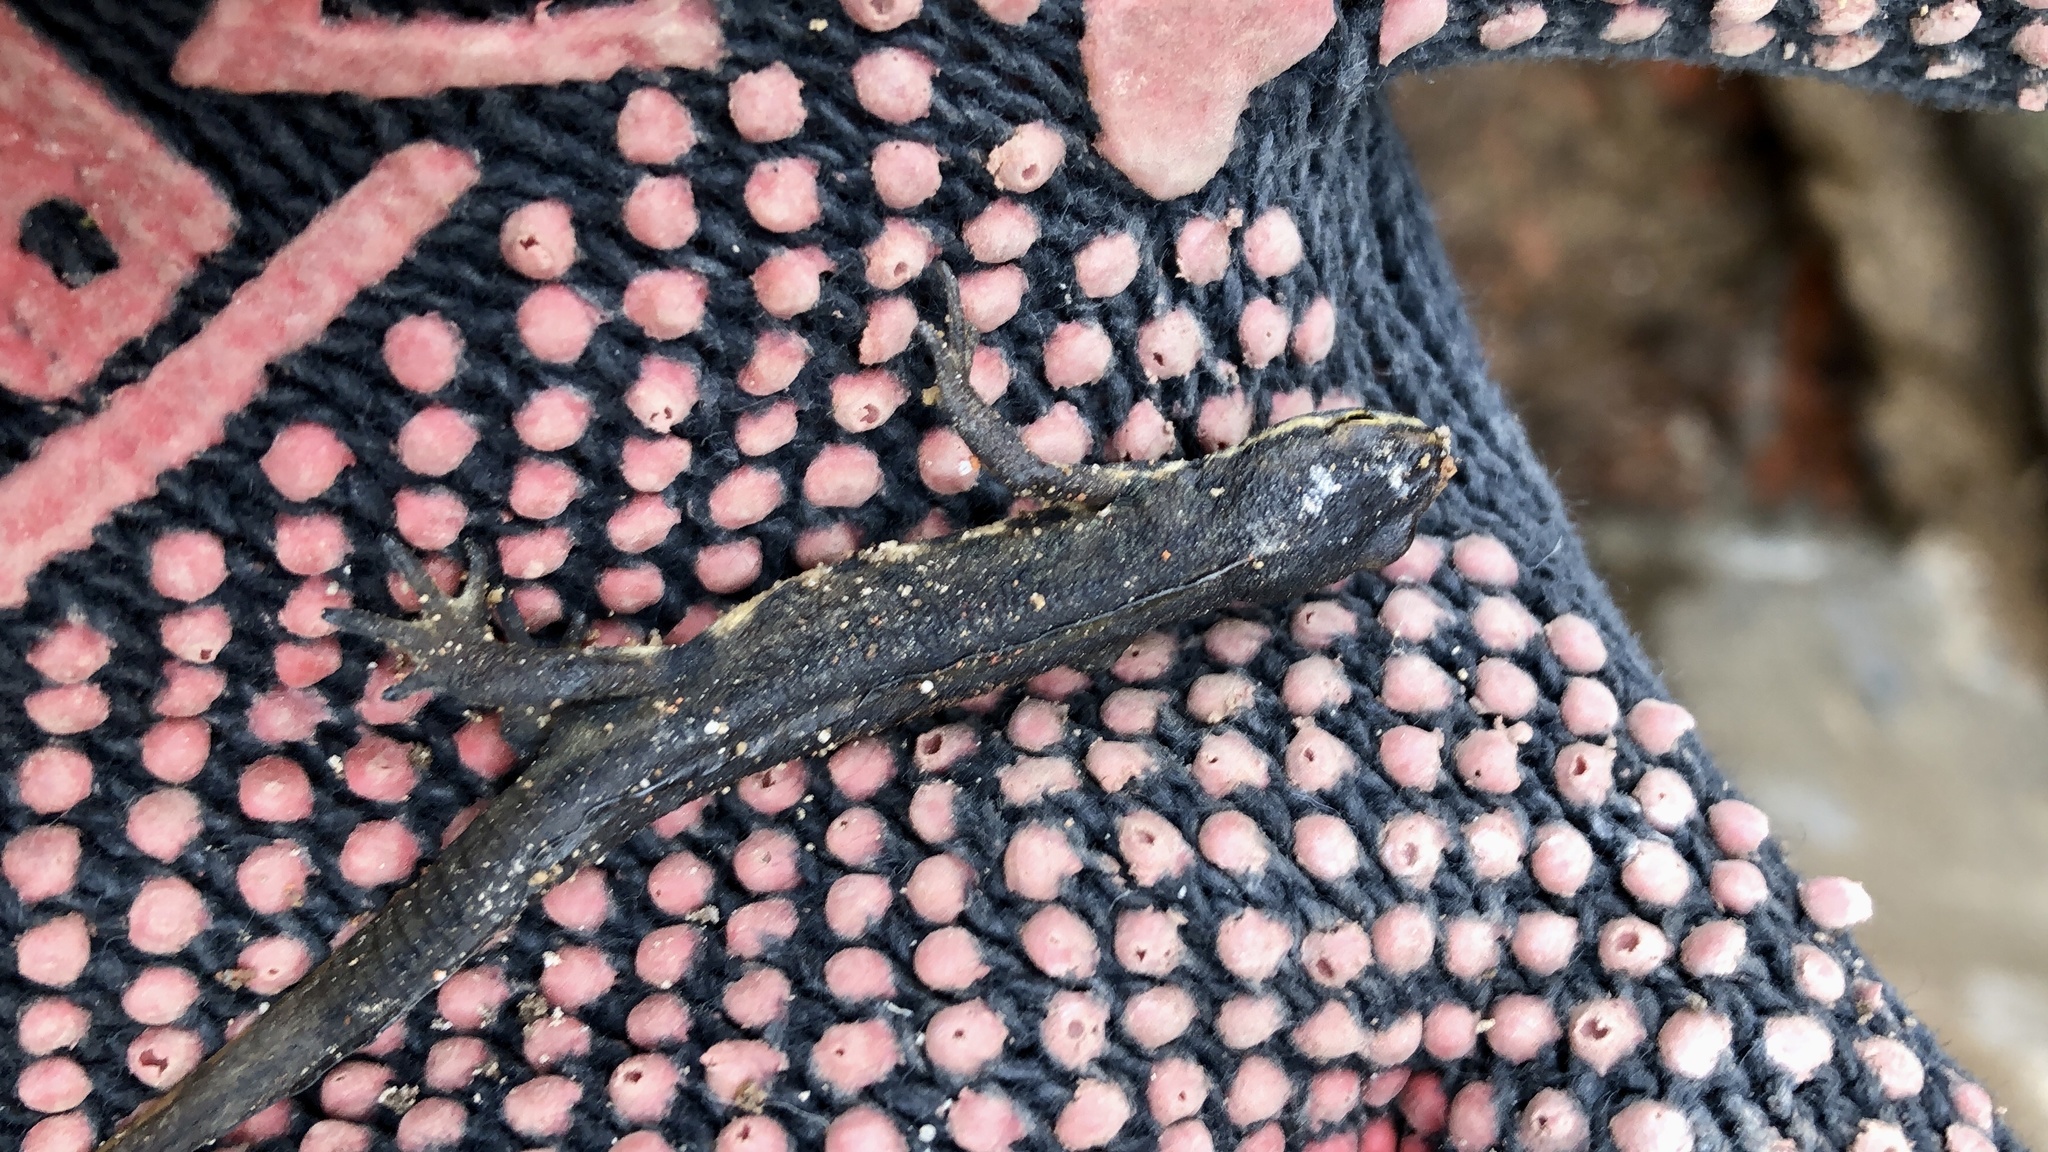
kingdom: Animalia
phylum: Chordata
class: Amphibia
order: Caudata
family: Salamandridae
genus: Lissotriton
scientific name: Lissotriton vulgaris
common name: Smooth newt
